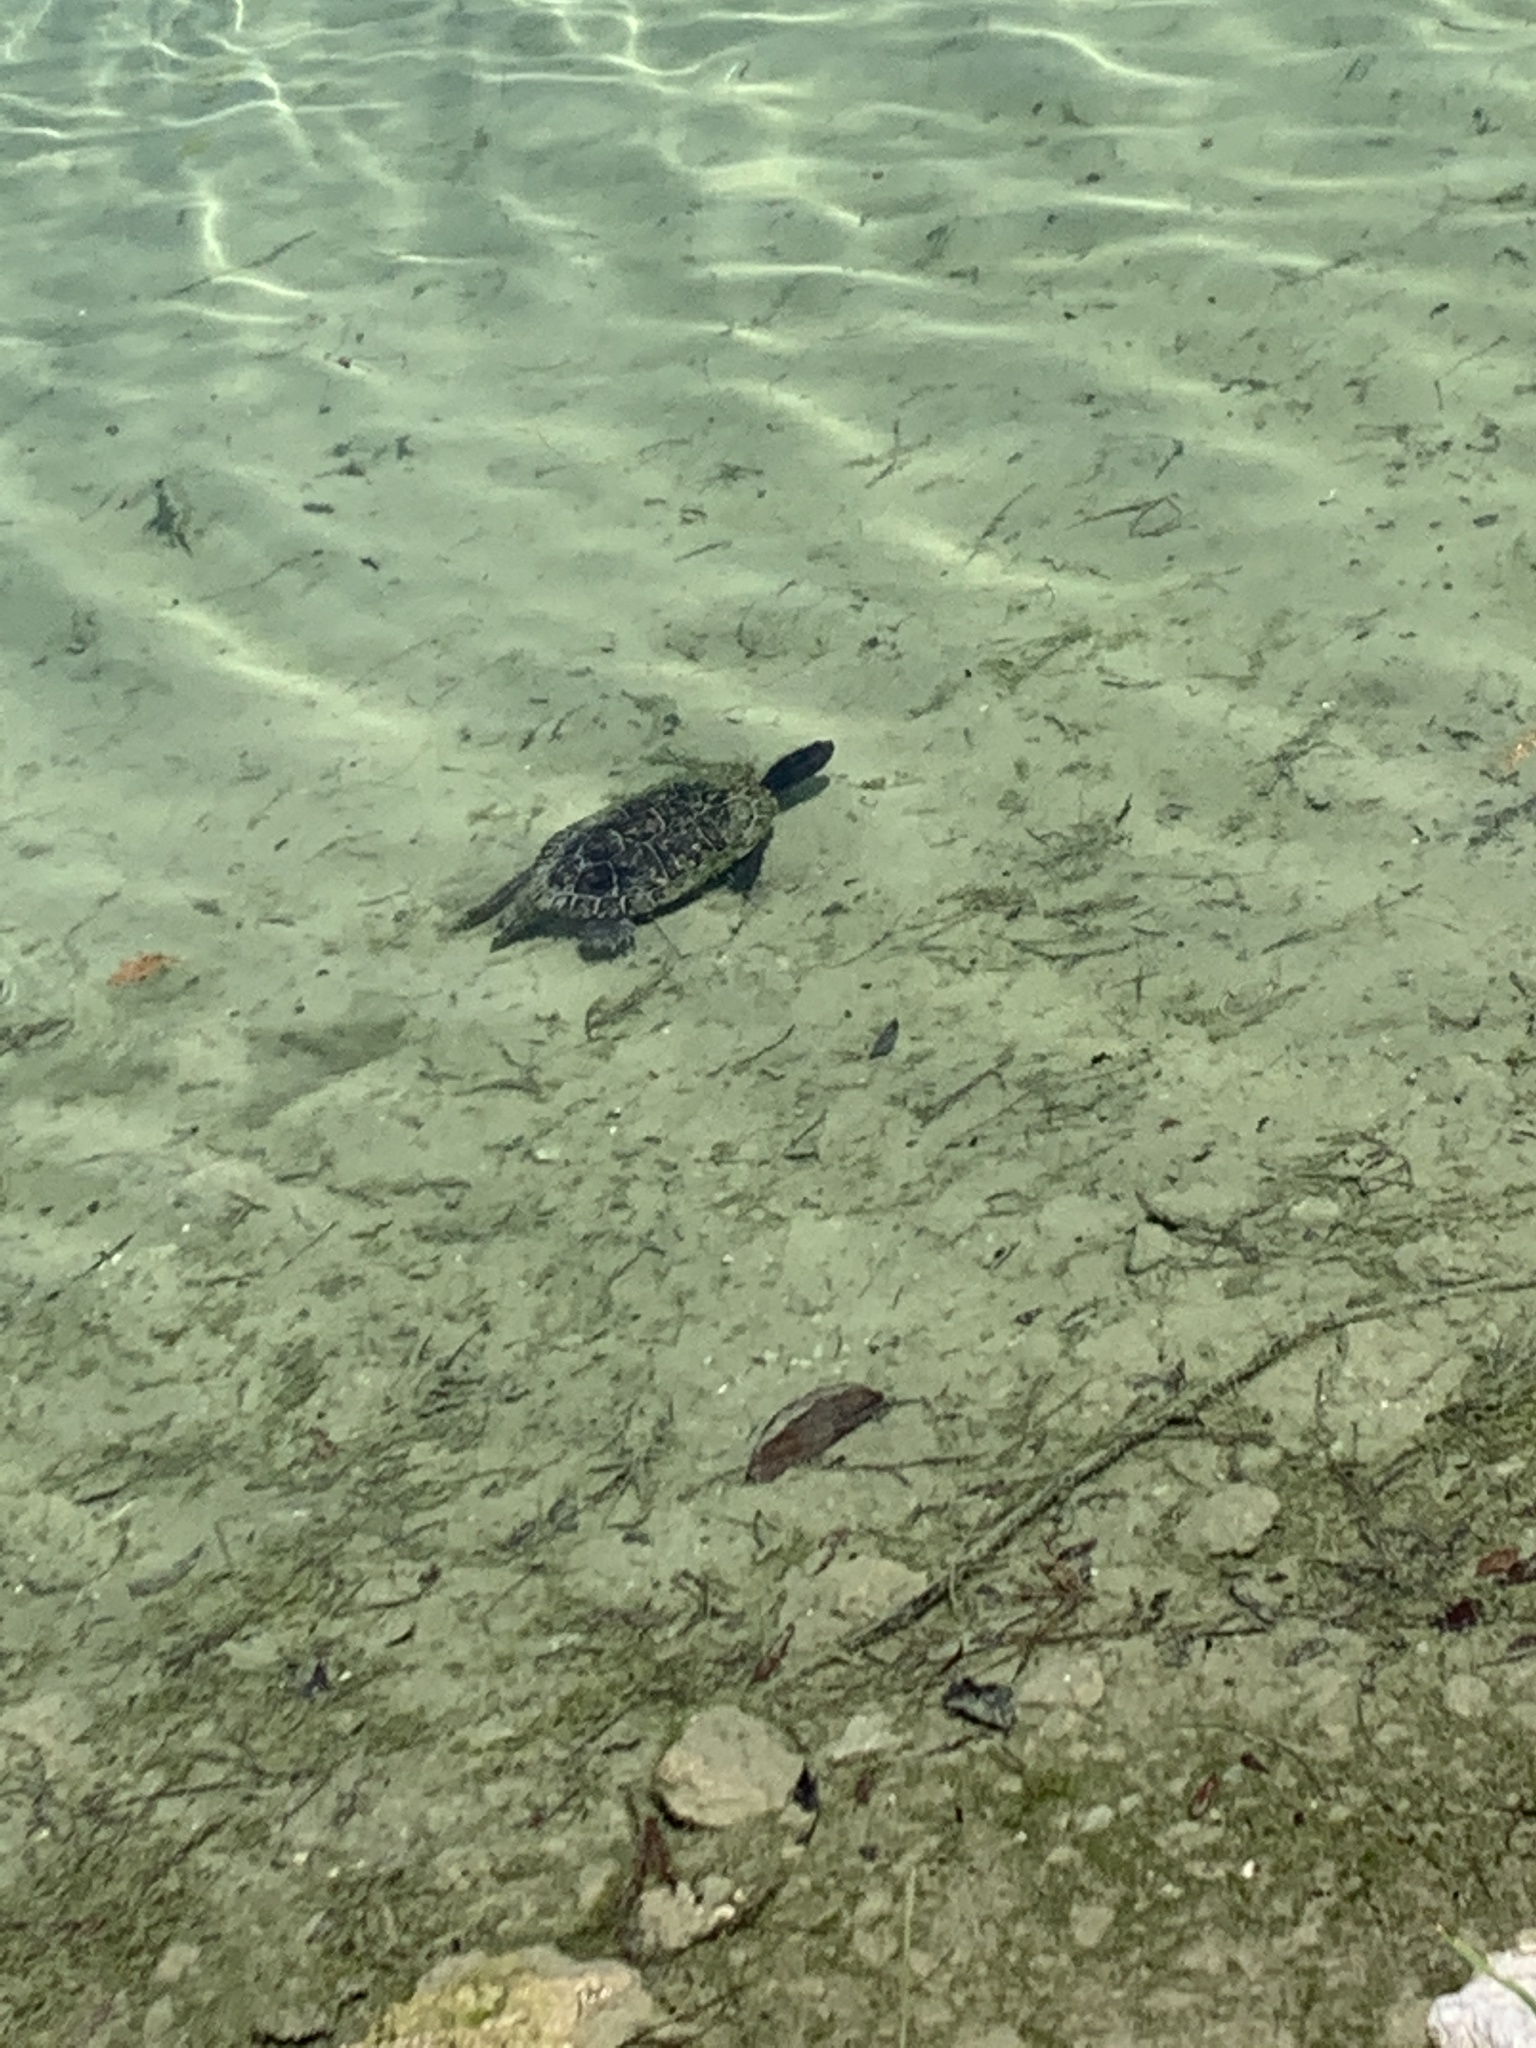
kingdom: Animalia
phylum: Chordata
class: Testudines
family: Emydidae
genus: Trachemys
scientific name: Trachemys scripta
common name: Slider
